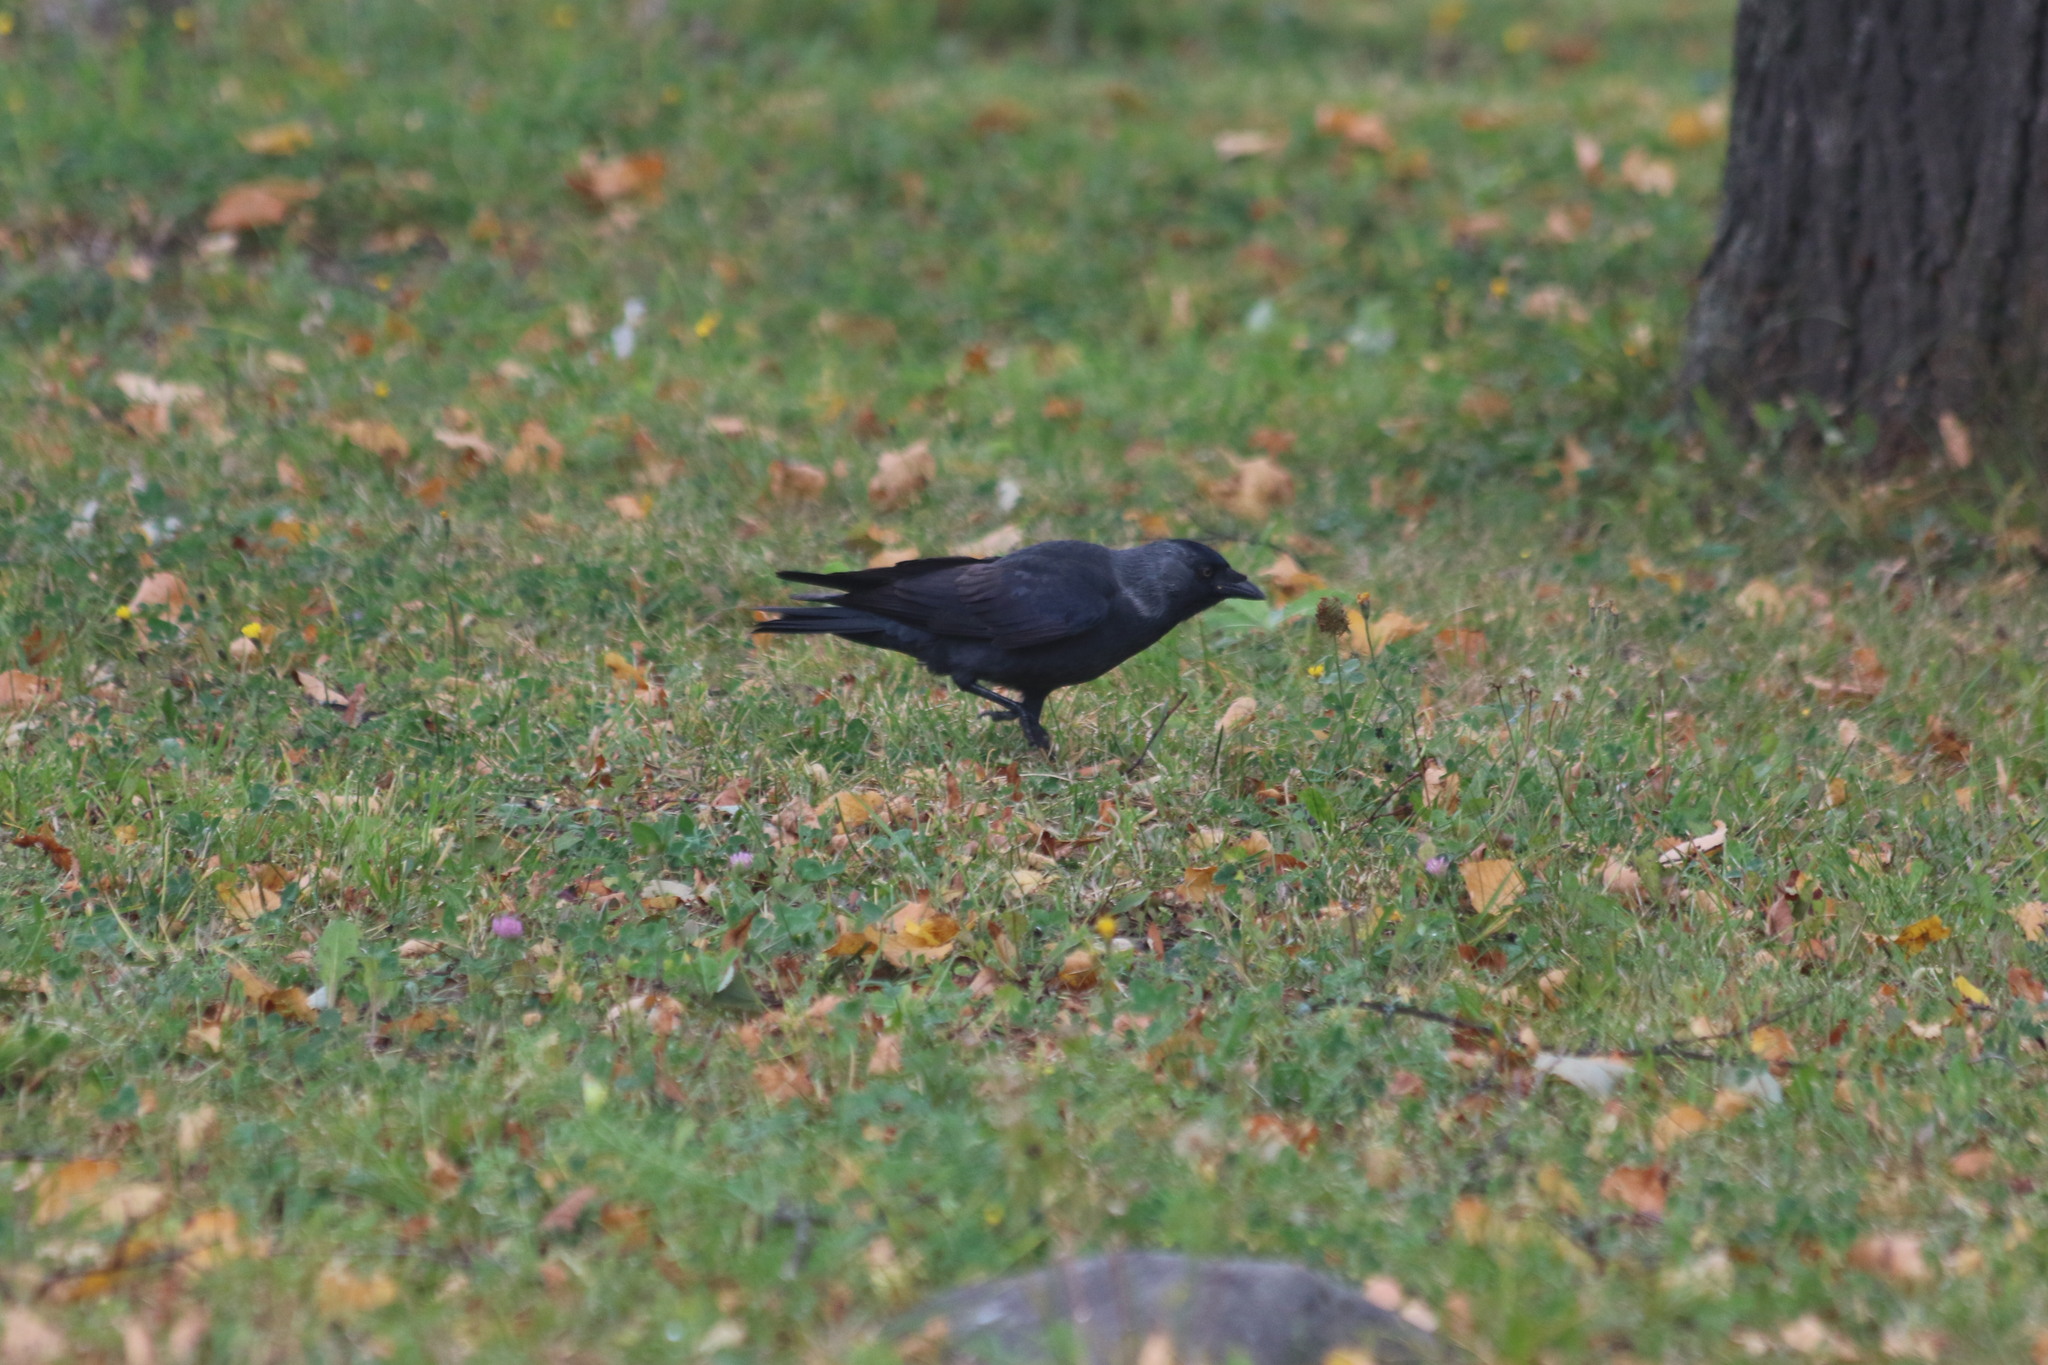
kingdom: Animalia
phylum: Chordata
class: Aves
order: Passeriformes
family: Corvidae
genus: Coloeus
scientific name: Coloeus monedula
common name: Western jackdaw
